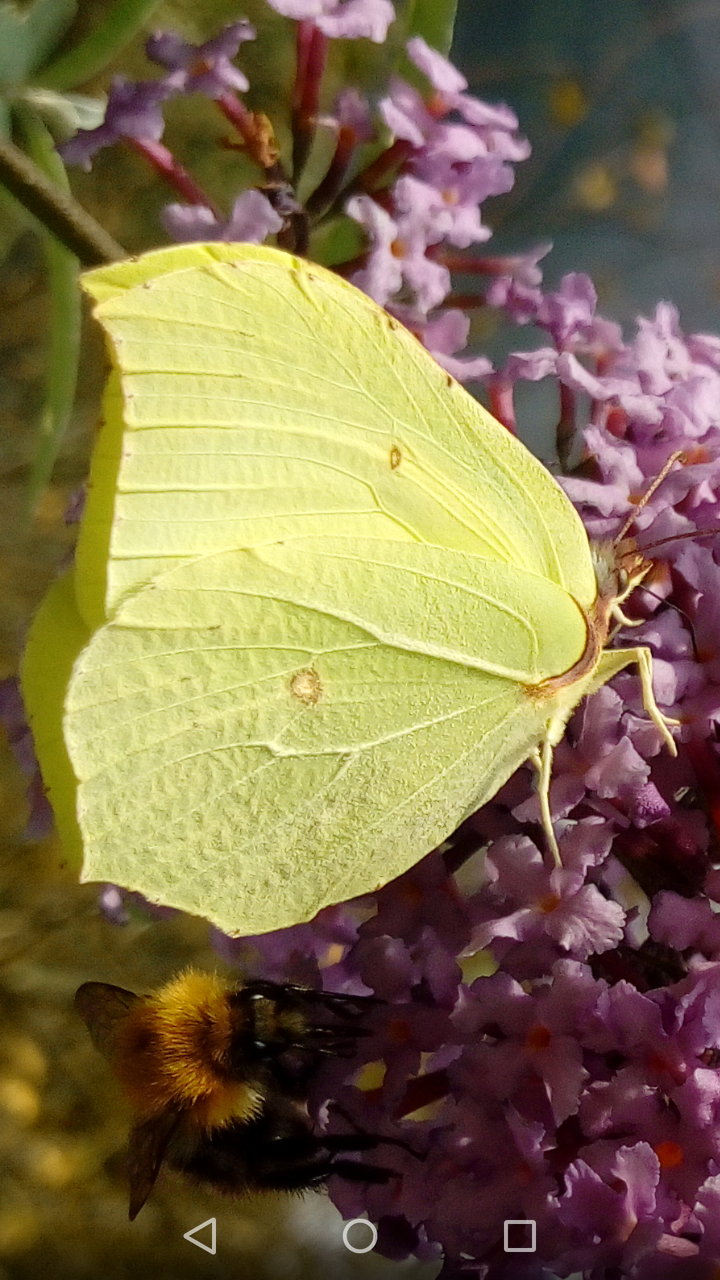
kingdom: Animalia
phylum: Arthropoda
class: Insecta
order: Lepidoptera
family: Pieridae
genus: Gonepteryx
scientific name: Gonepteryx rhamni
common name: Brimstone
